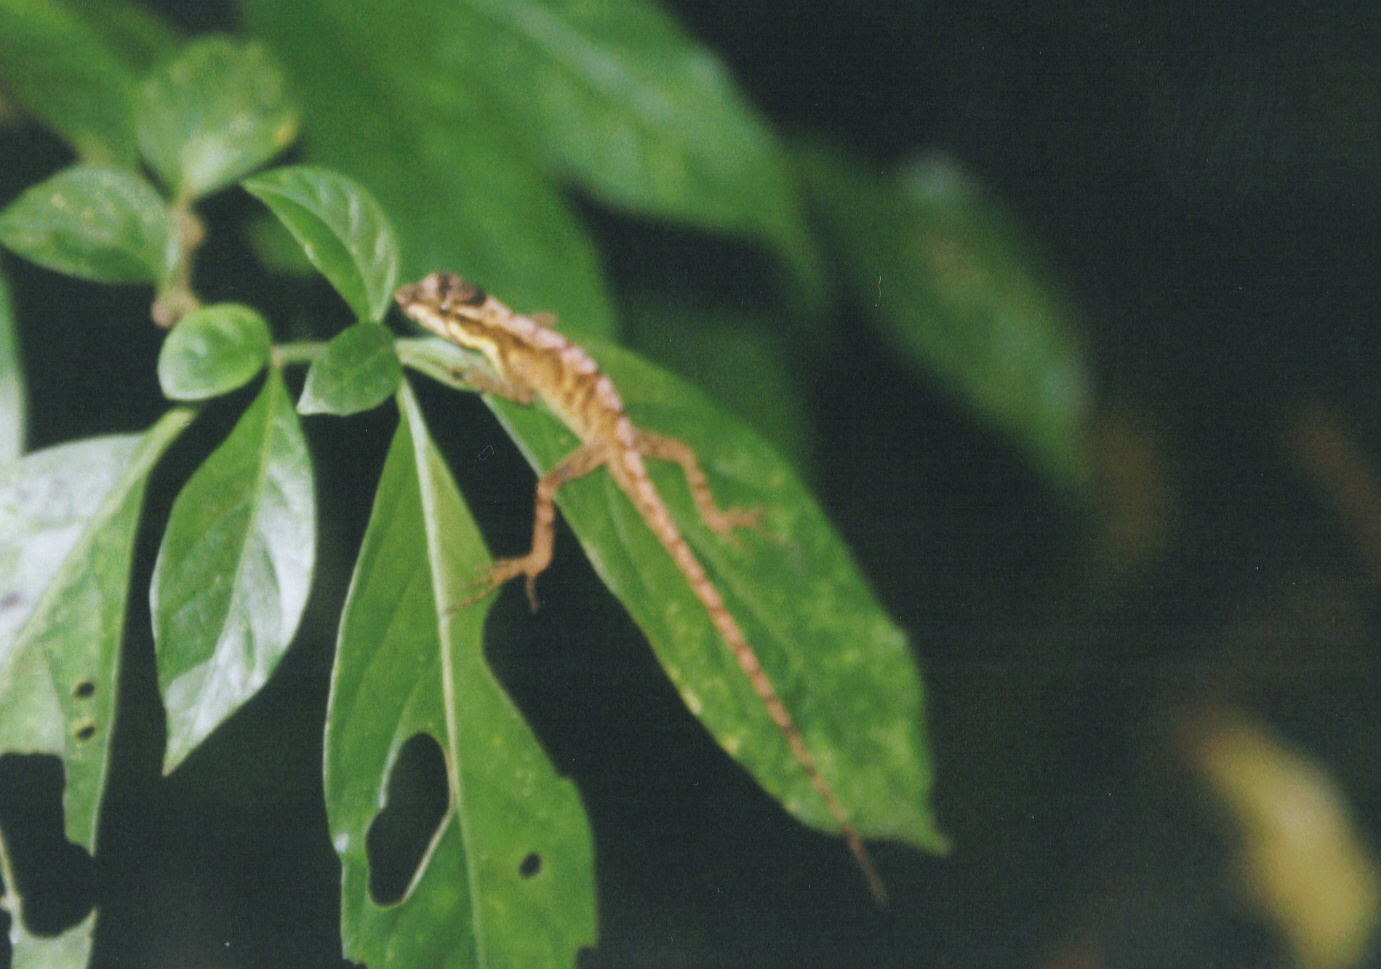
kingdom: Animalia
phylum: Chordata
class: Squamata
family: Dactyloidae
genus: Anolis
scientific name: Anolis cupreus
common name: Copper anole
